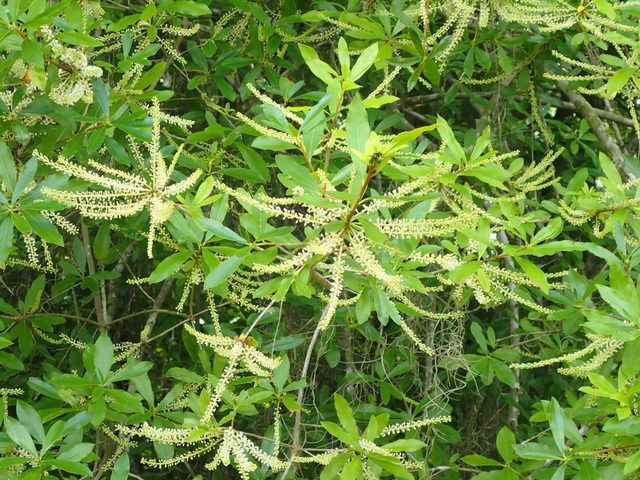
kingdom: Plantae
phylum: Tracheophyta
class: Magnoliopsida
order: Ericales
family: Cyrillaceae
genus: Cyrilla
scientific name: Cyrilla racemiflora
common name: Black titi
